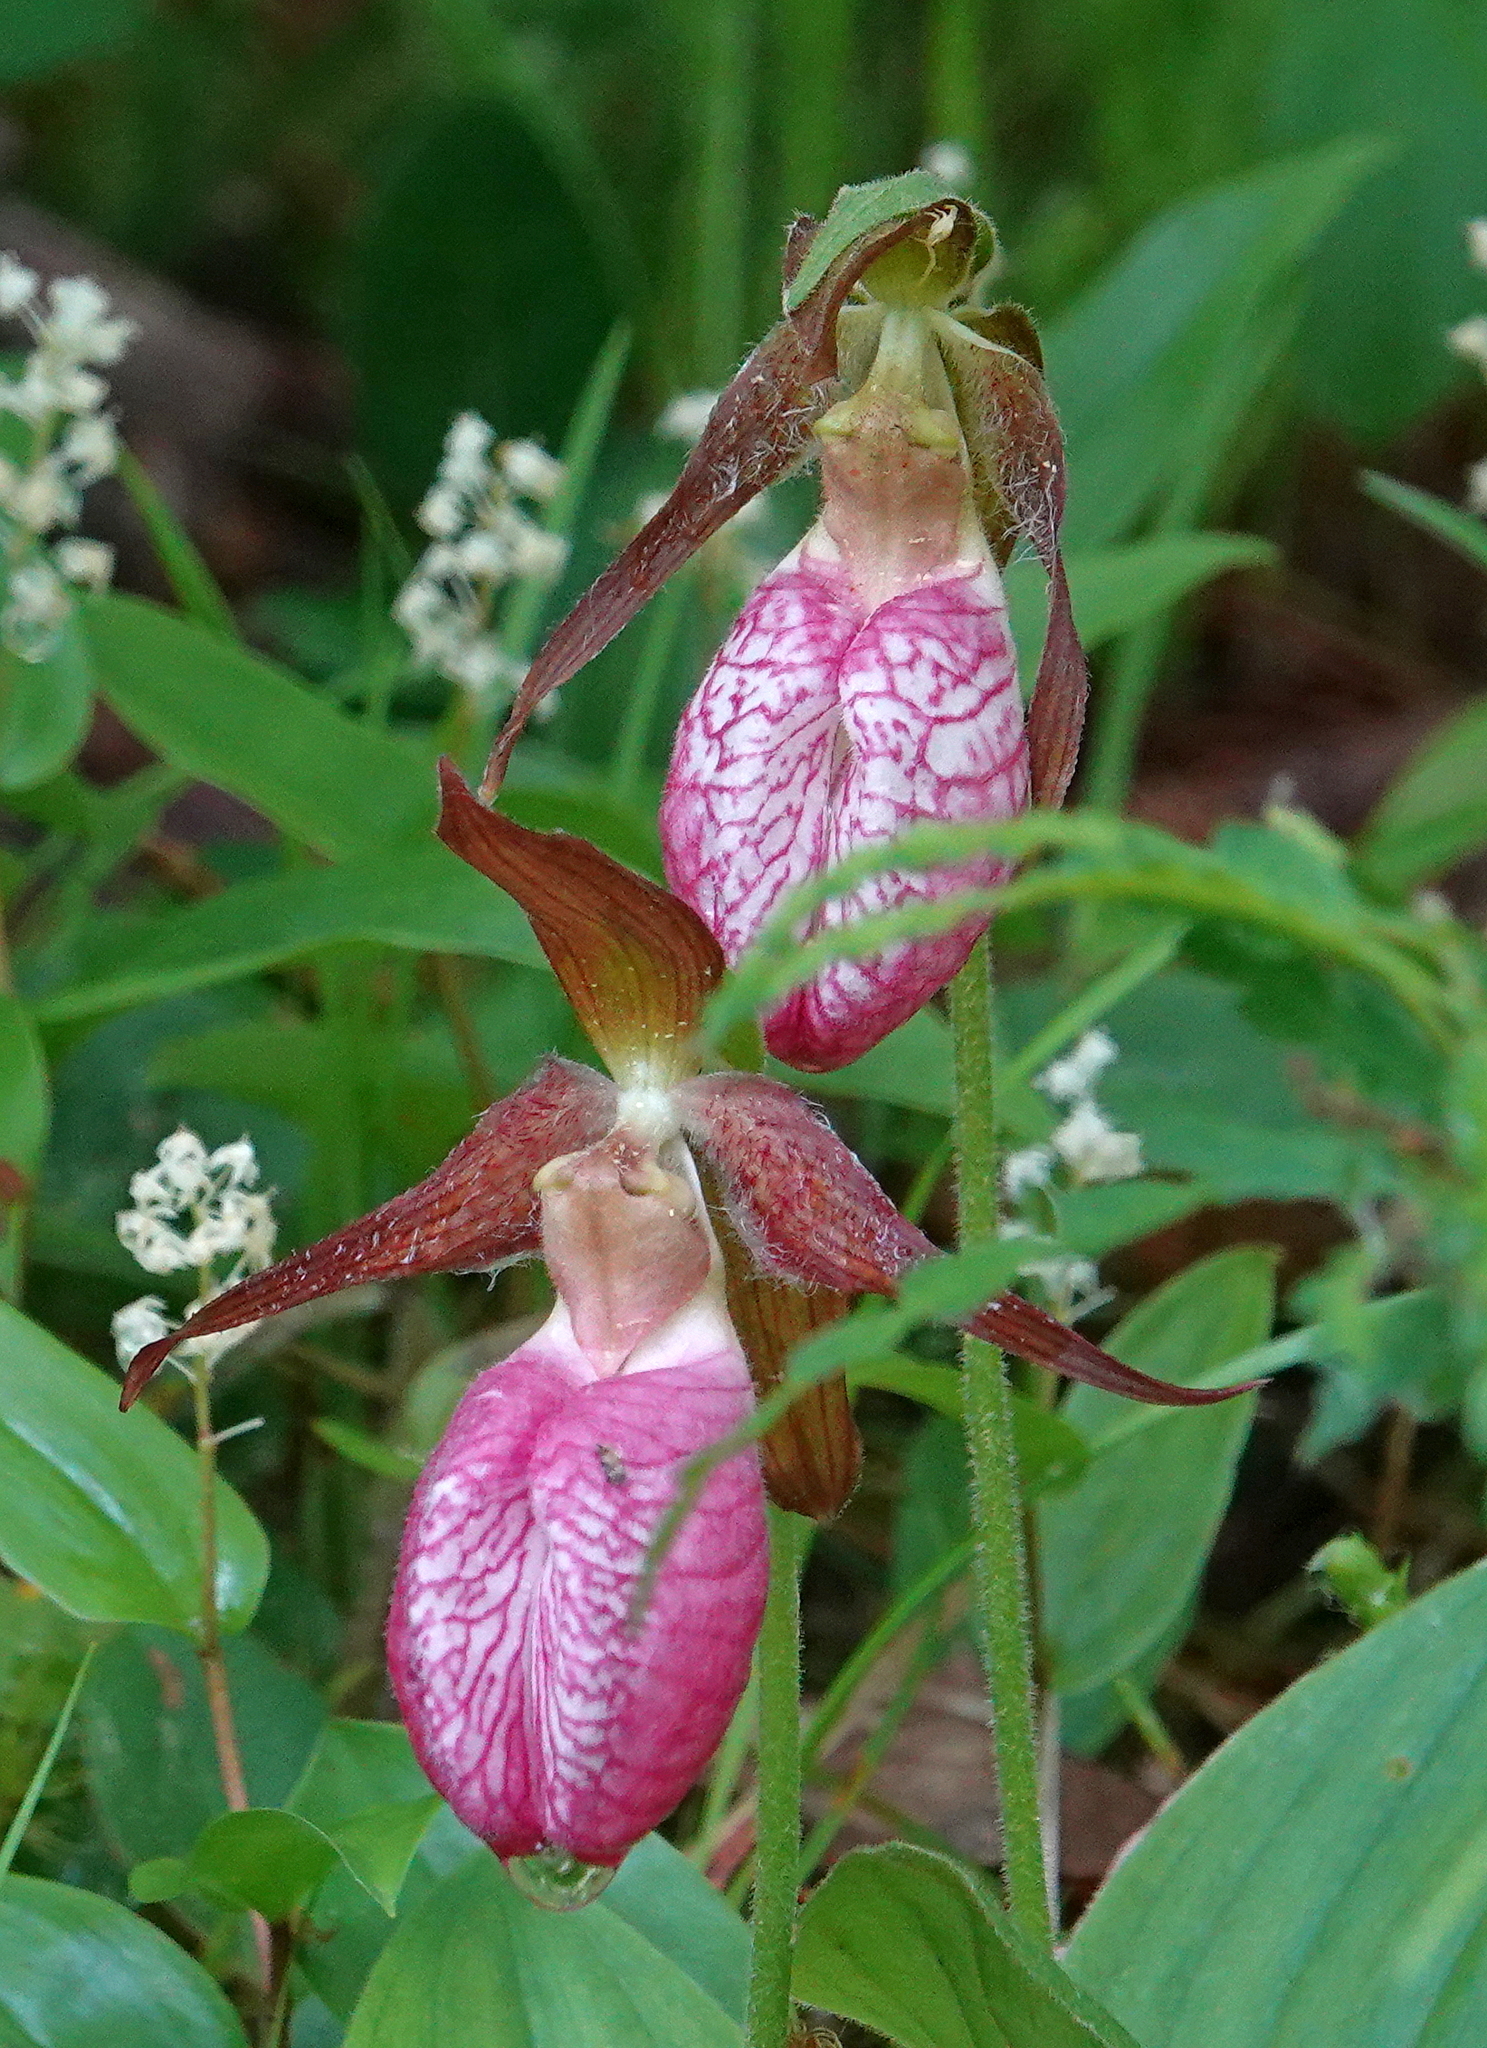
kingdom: Plantae
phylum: Tracheophyta
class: Liliopsida
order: Asparagales
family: Orchidaceae
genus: Cypripedium
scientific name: Cypripedium acaule
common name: Pink lady's-slipper
